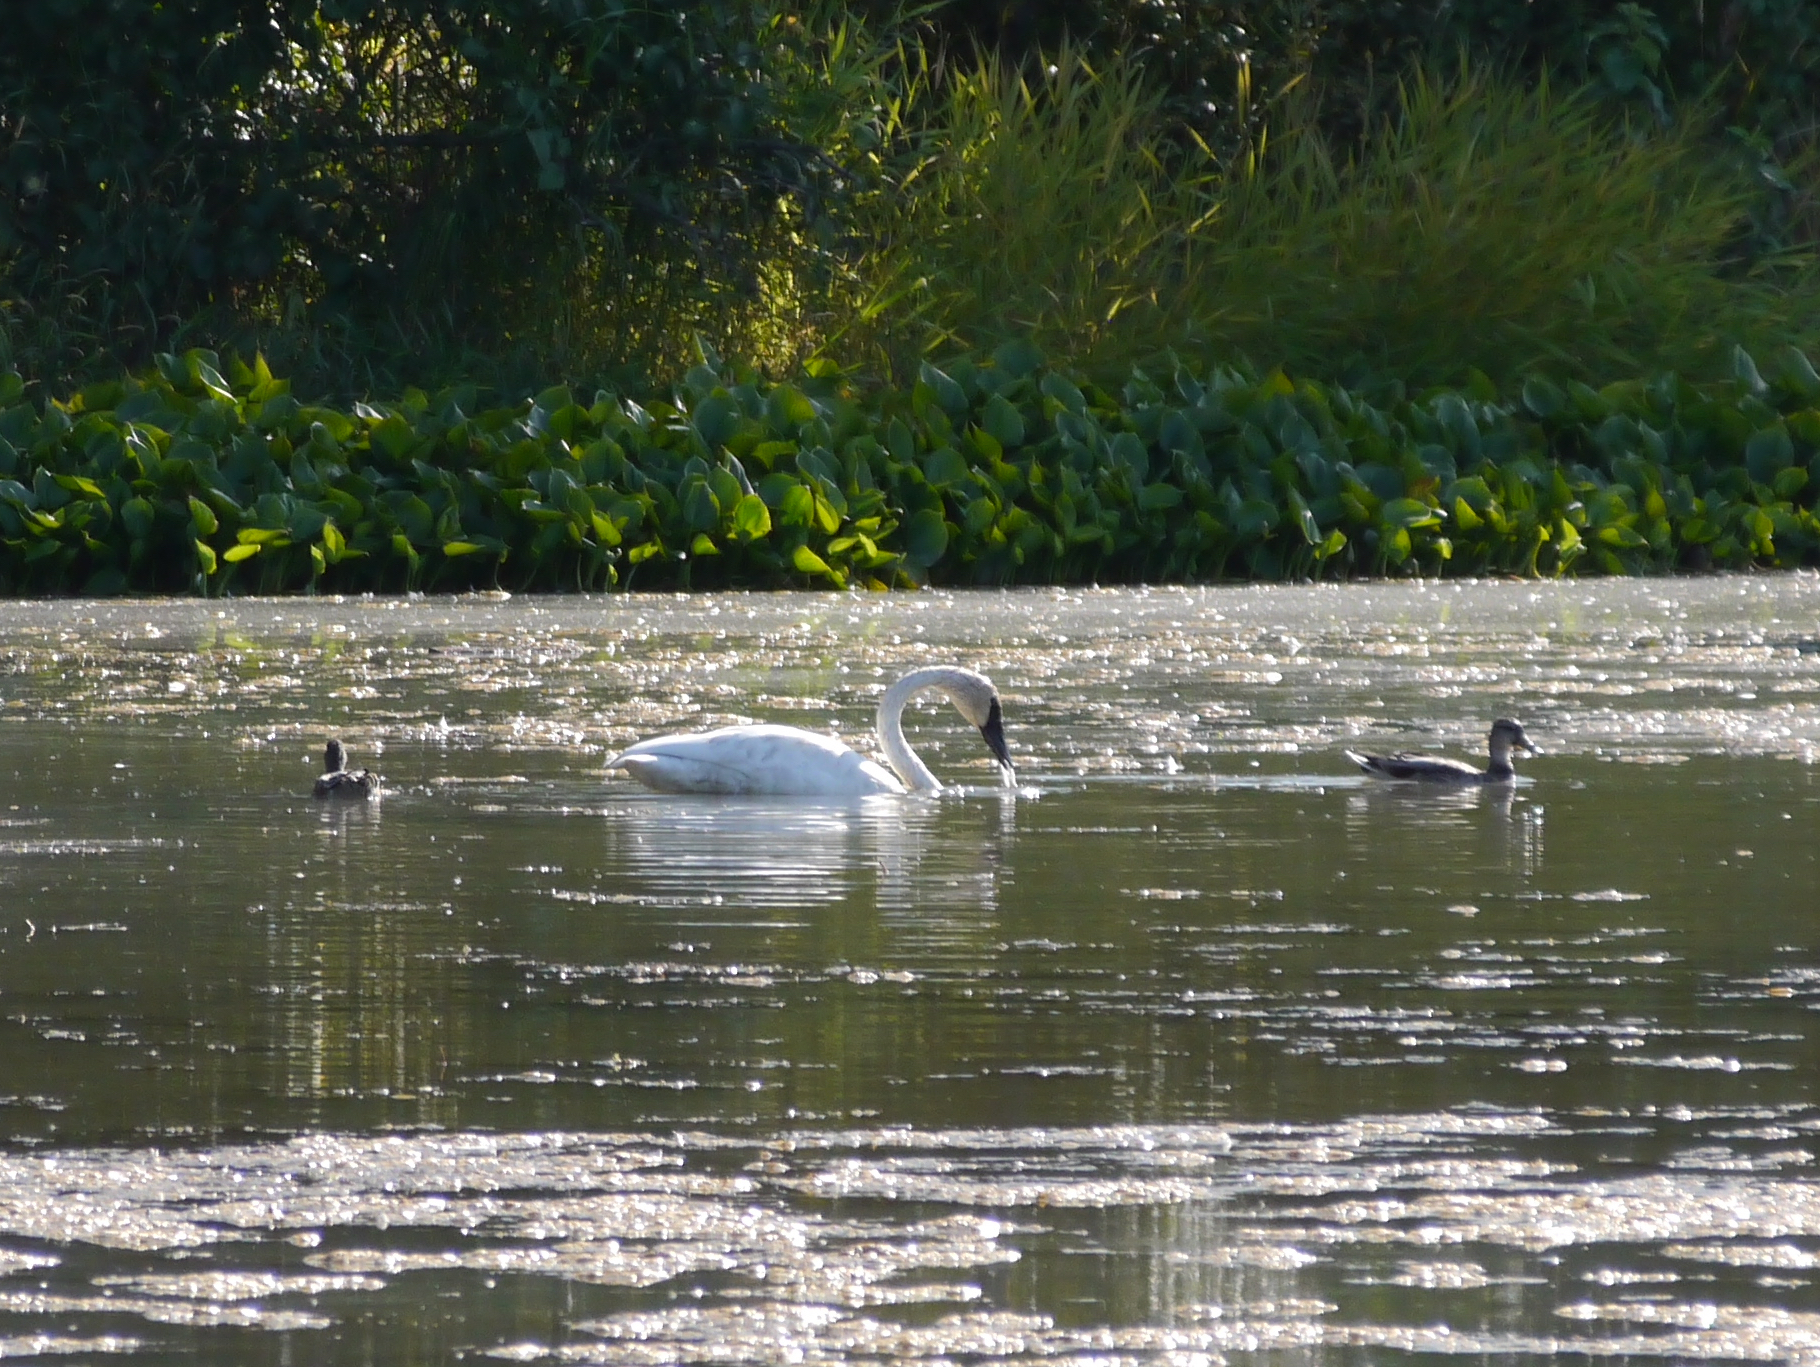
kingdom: Animalia
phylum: Chordata
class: Aves
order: Anseriformes
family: Anatidae
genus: Cygnus
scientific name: Cygnus buccinator
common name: Trumpeter swan
